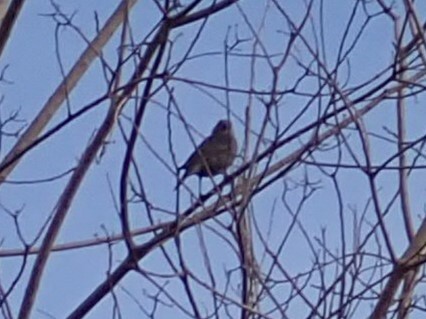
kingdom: Animalia
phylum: Chordata
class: Aves
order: Passeriformes
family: Passerellidae
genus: Melospiza
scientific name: Melospiza melodia
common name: Song sparrow
